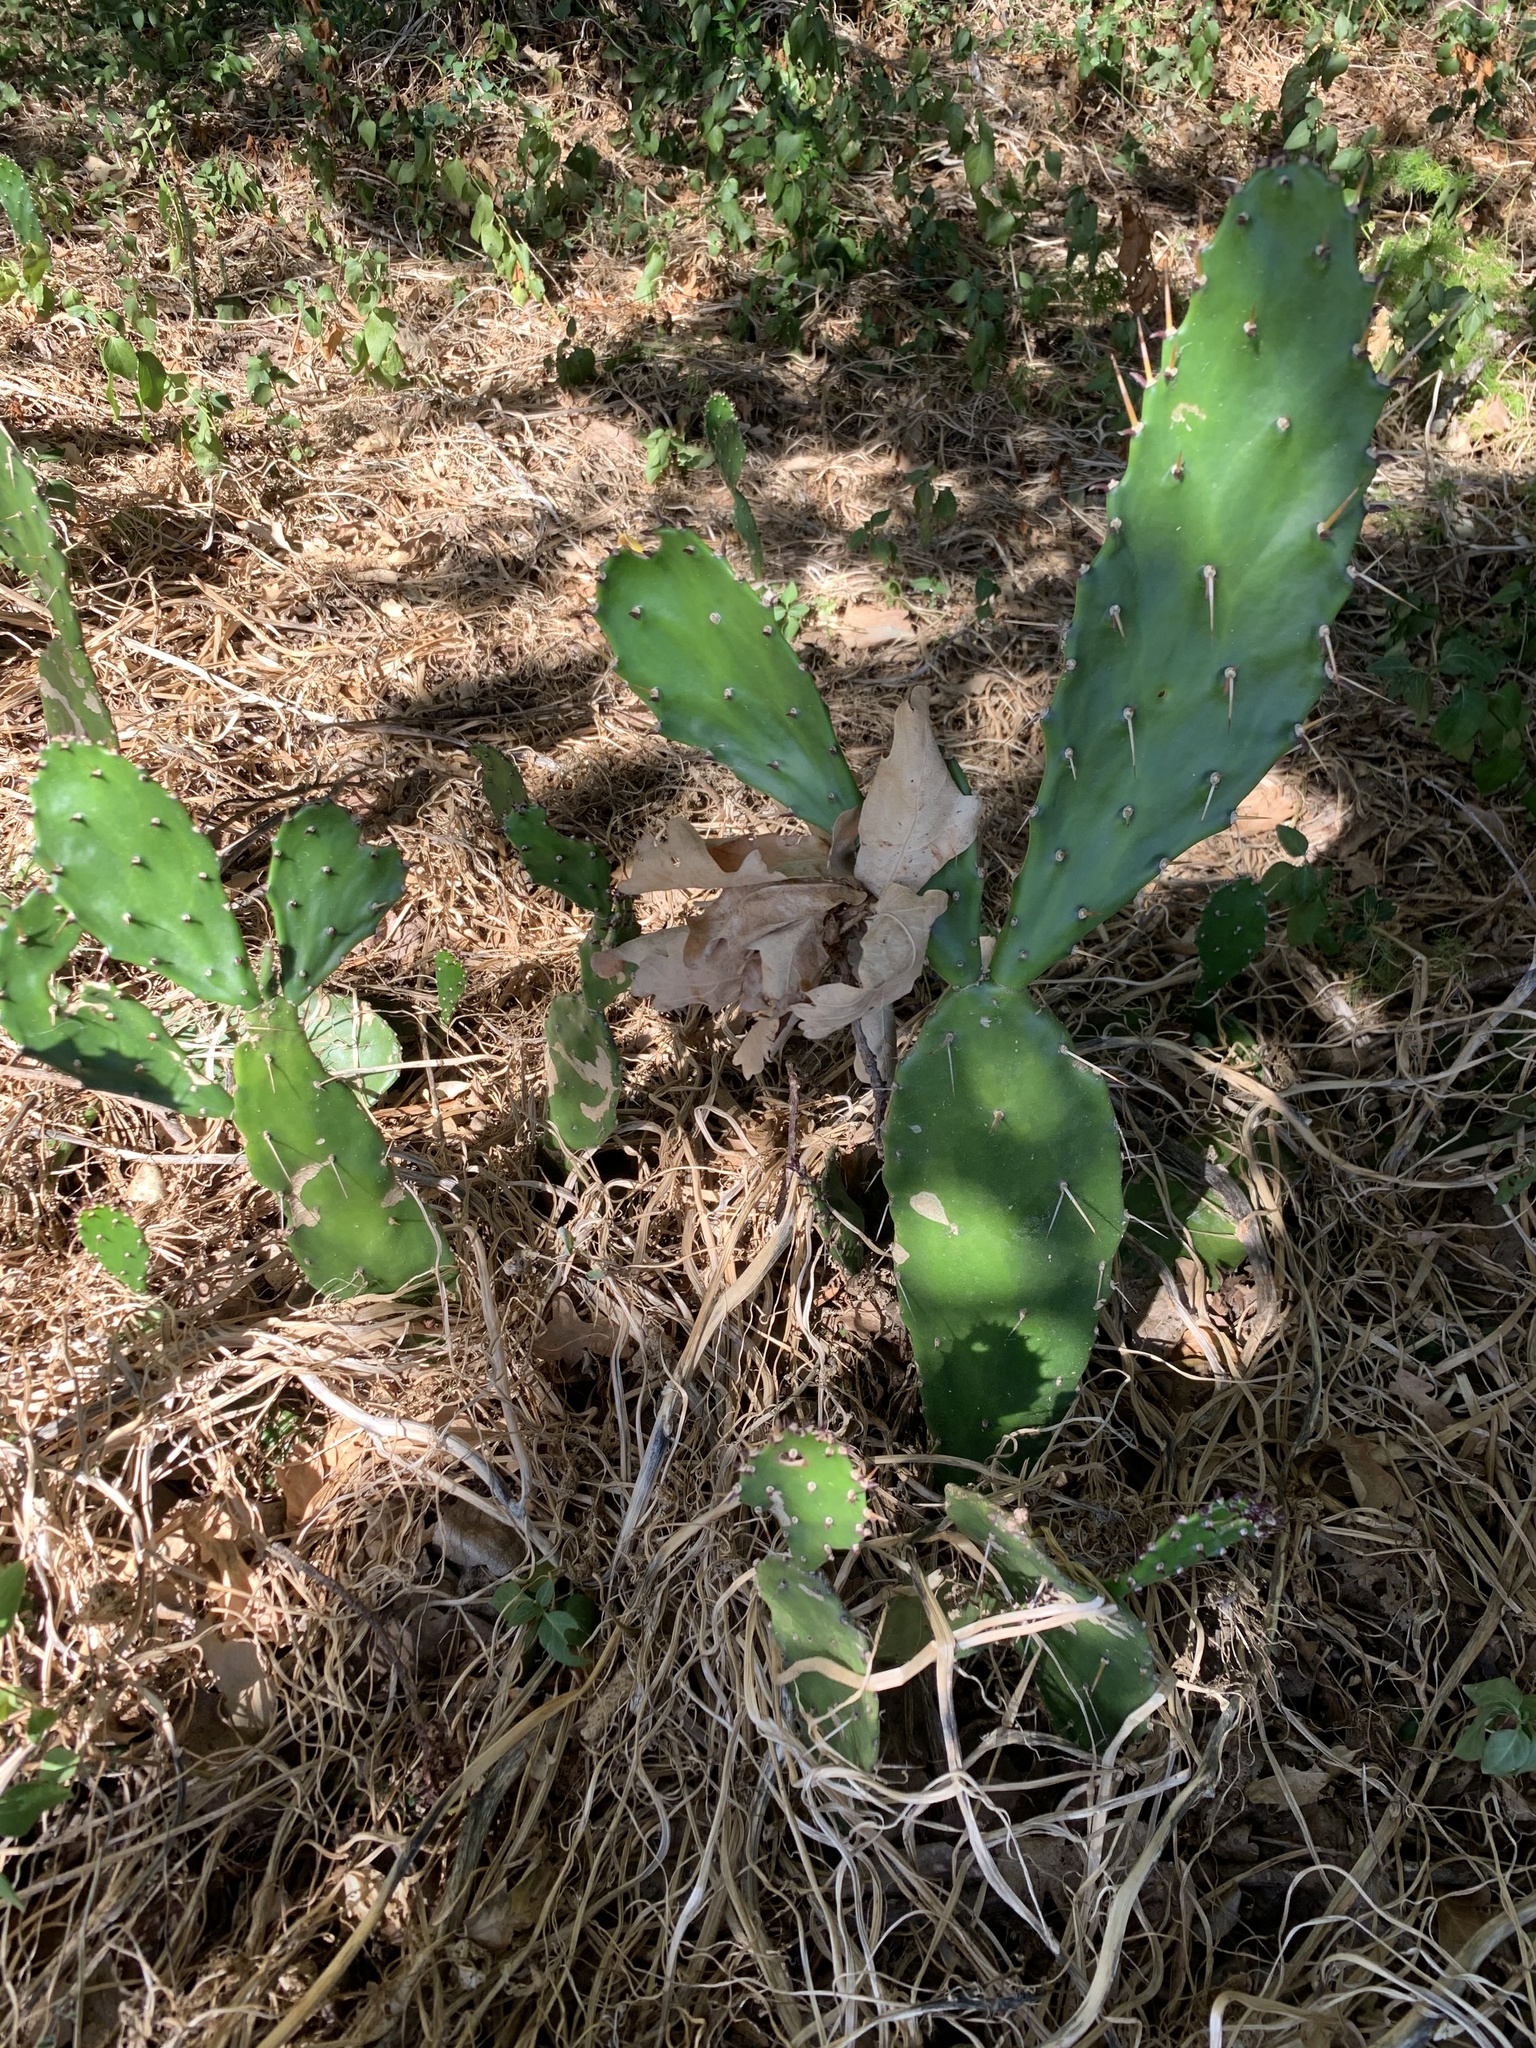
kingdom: Plantae
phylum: Tracheophyta
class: Magnoliopsida
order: Caryophyllales
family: Cactaceae
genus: Opuntia
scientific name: Opuntia monacantha
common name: Common pricklypear
